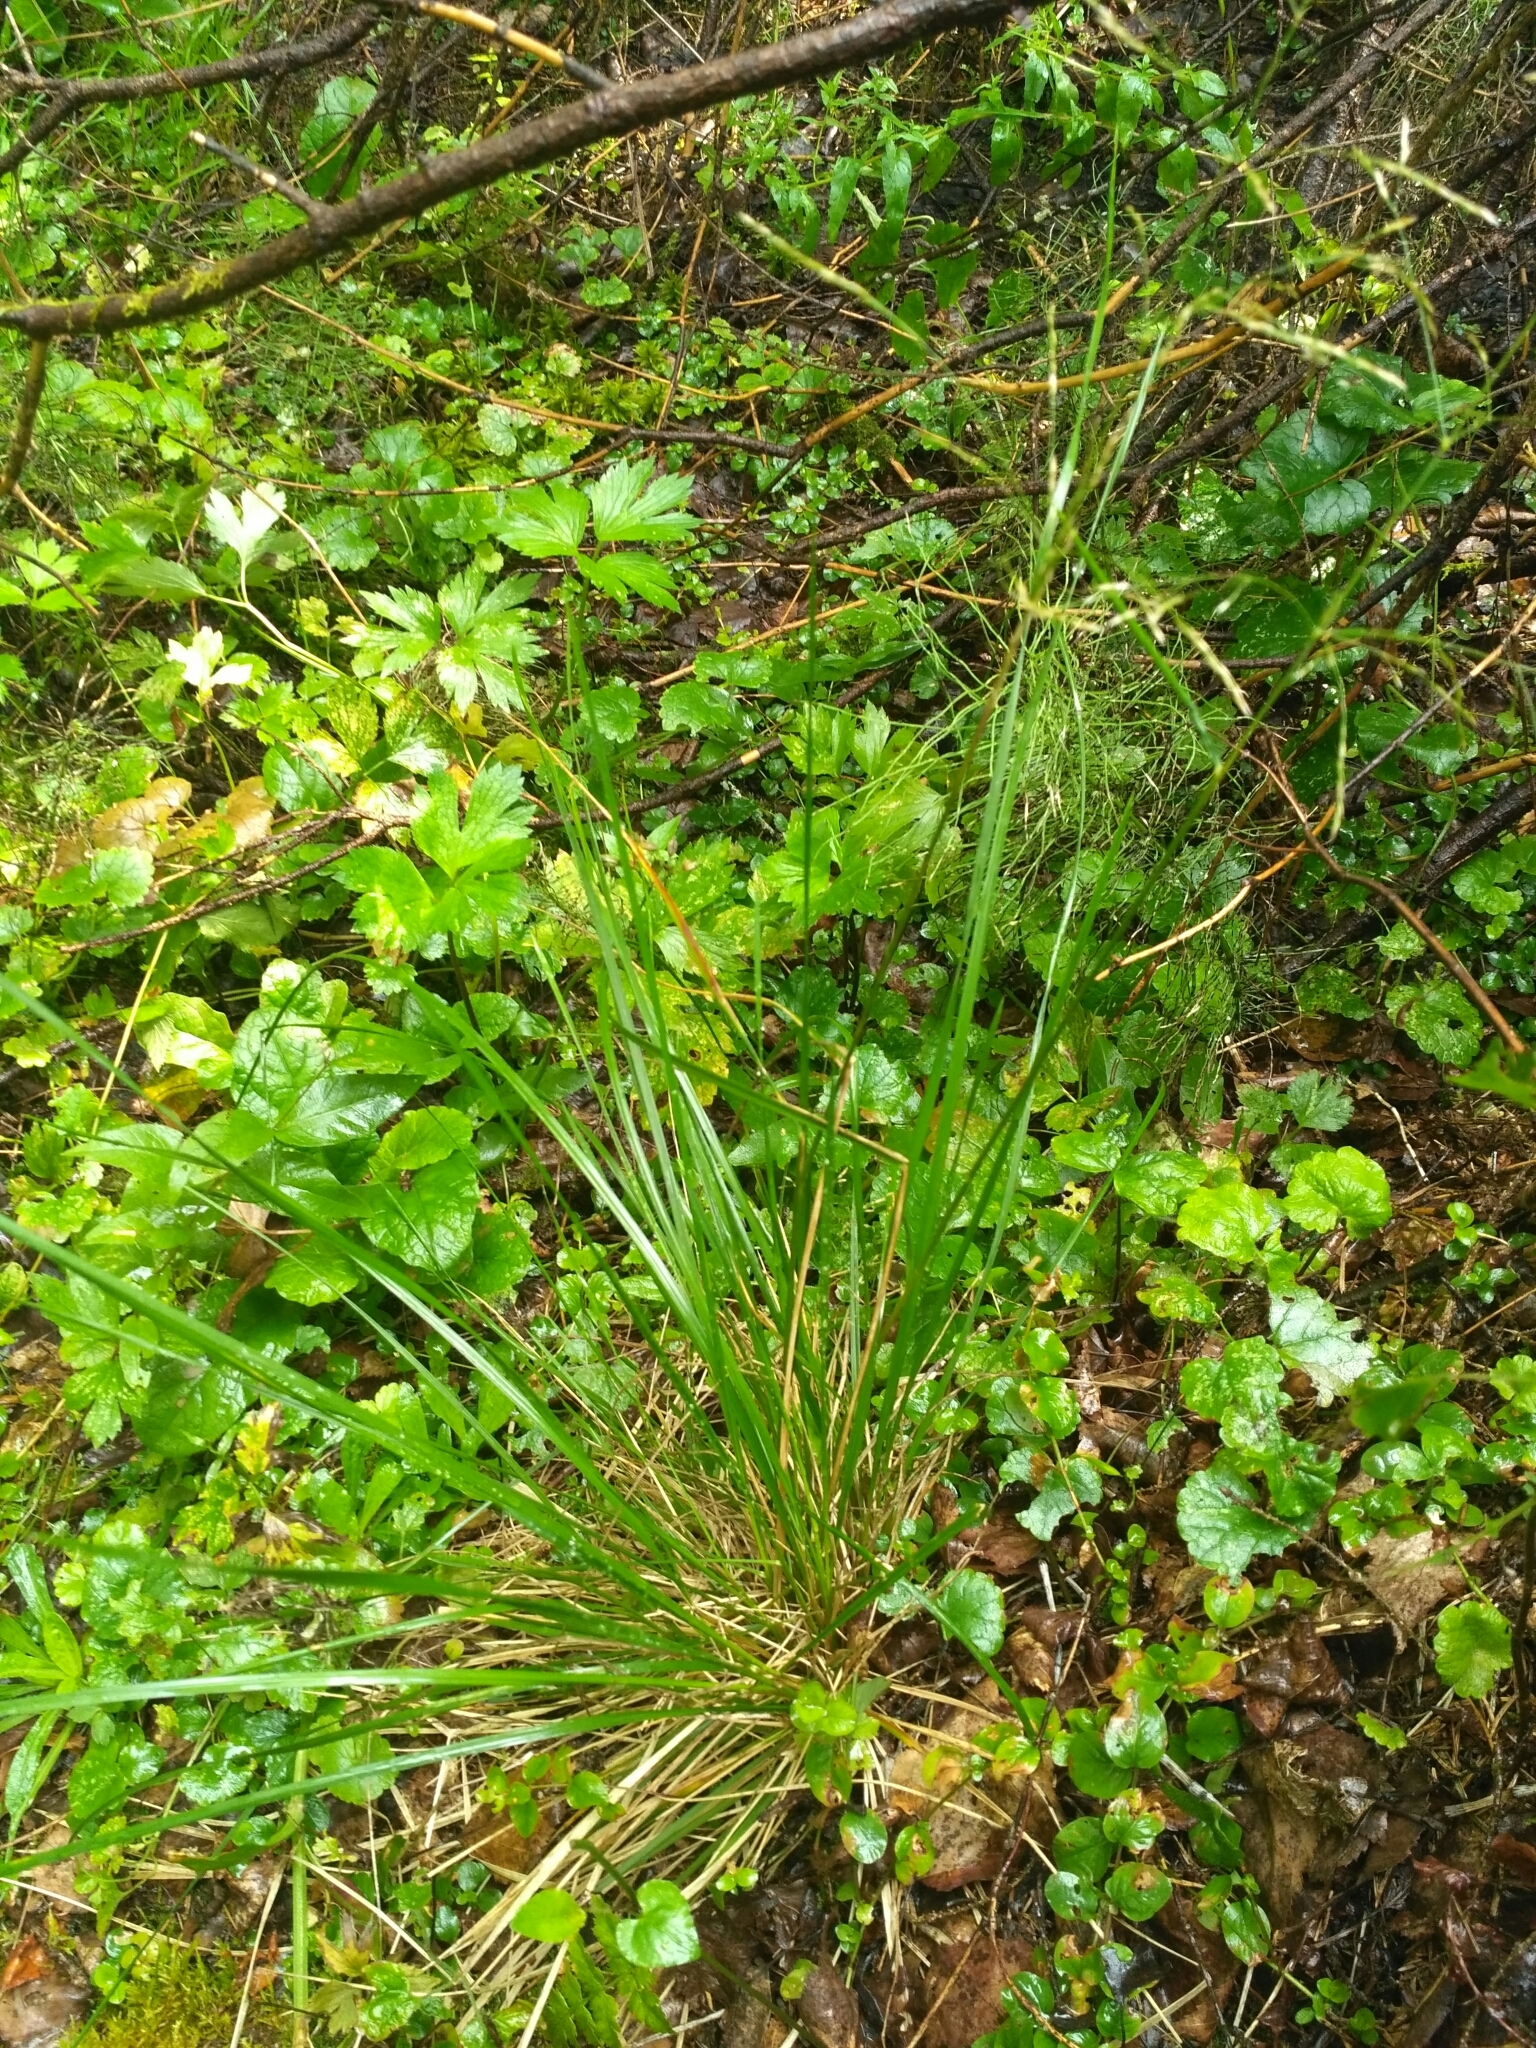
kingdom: Plantae
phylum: Tracheophyta
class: Liliopsida
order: Poales
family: Poaceae
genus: Deschampsia
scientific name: Deschampsia cespitosa
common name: Tufted hair-grass
